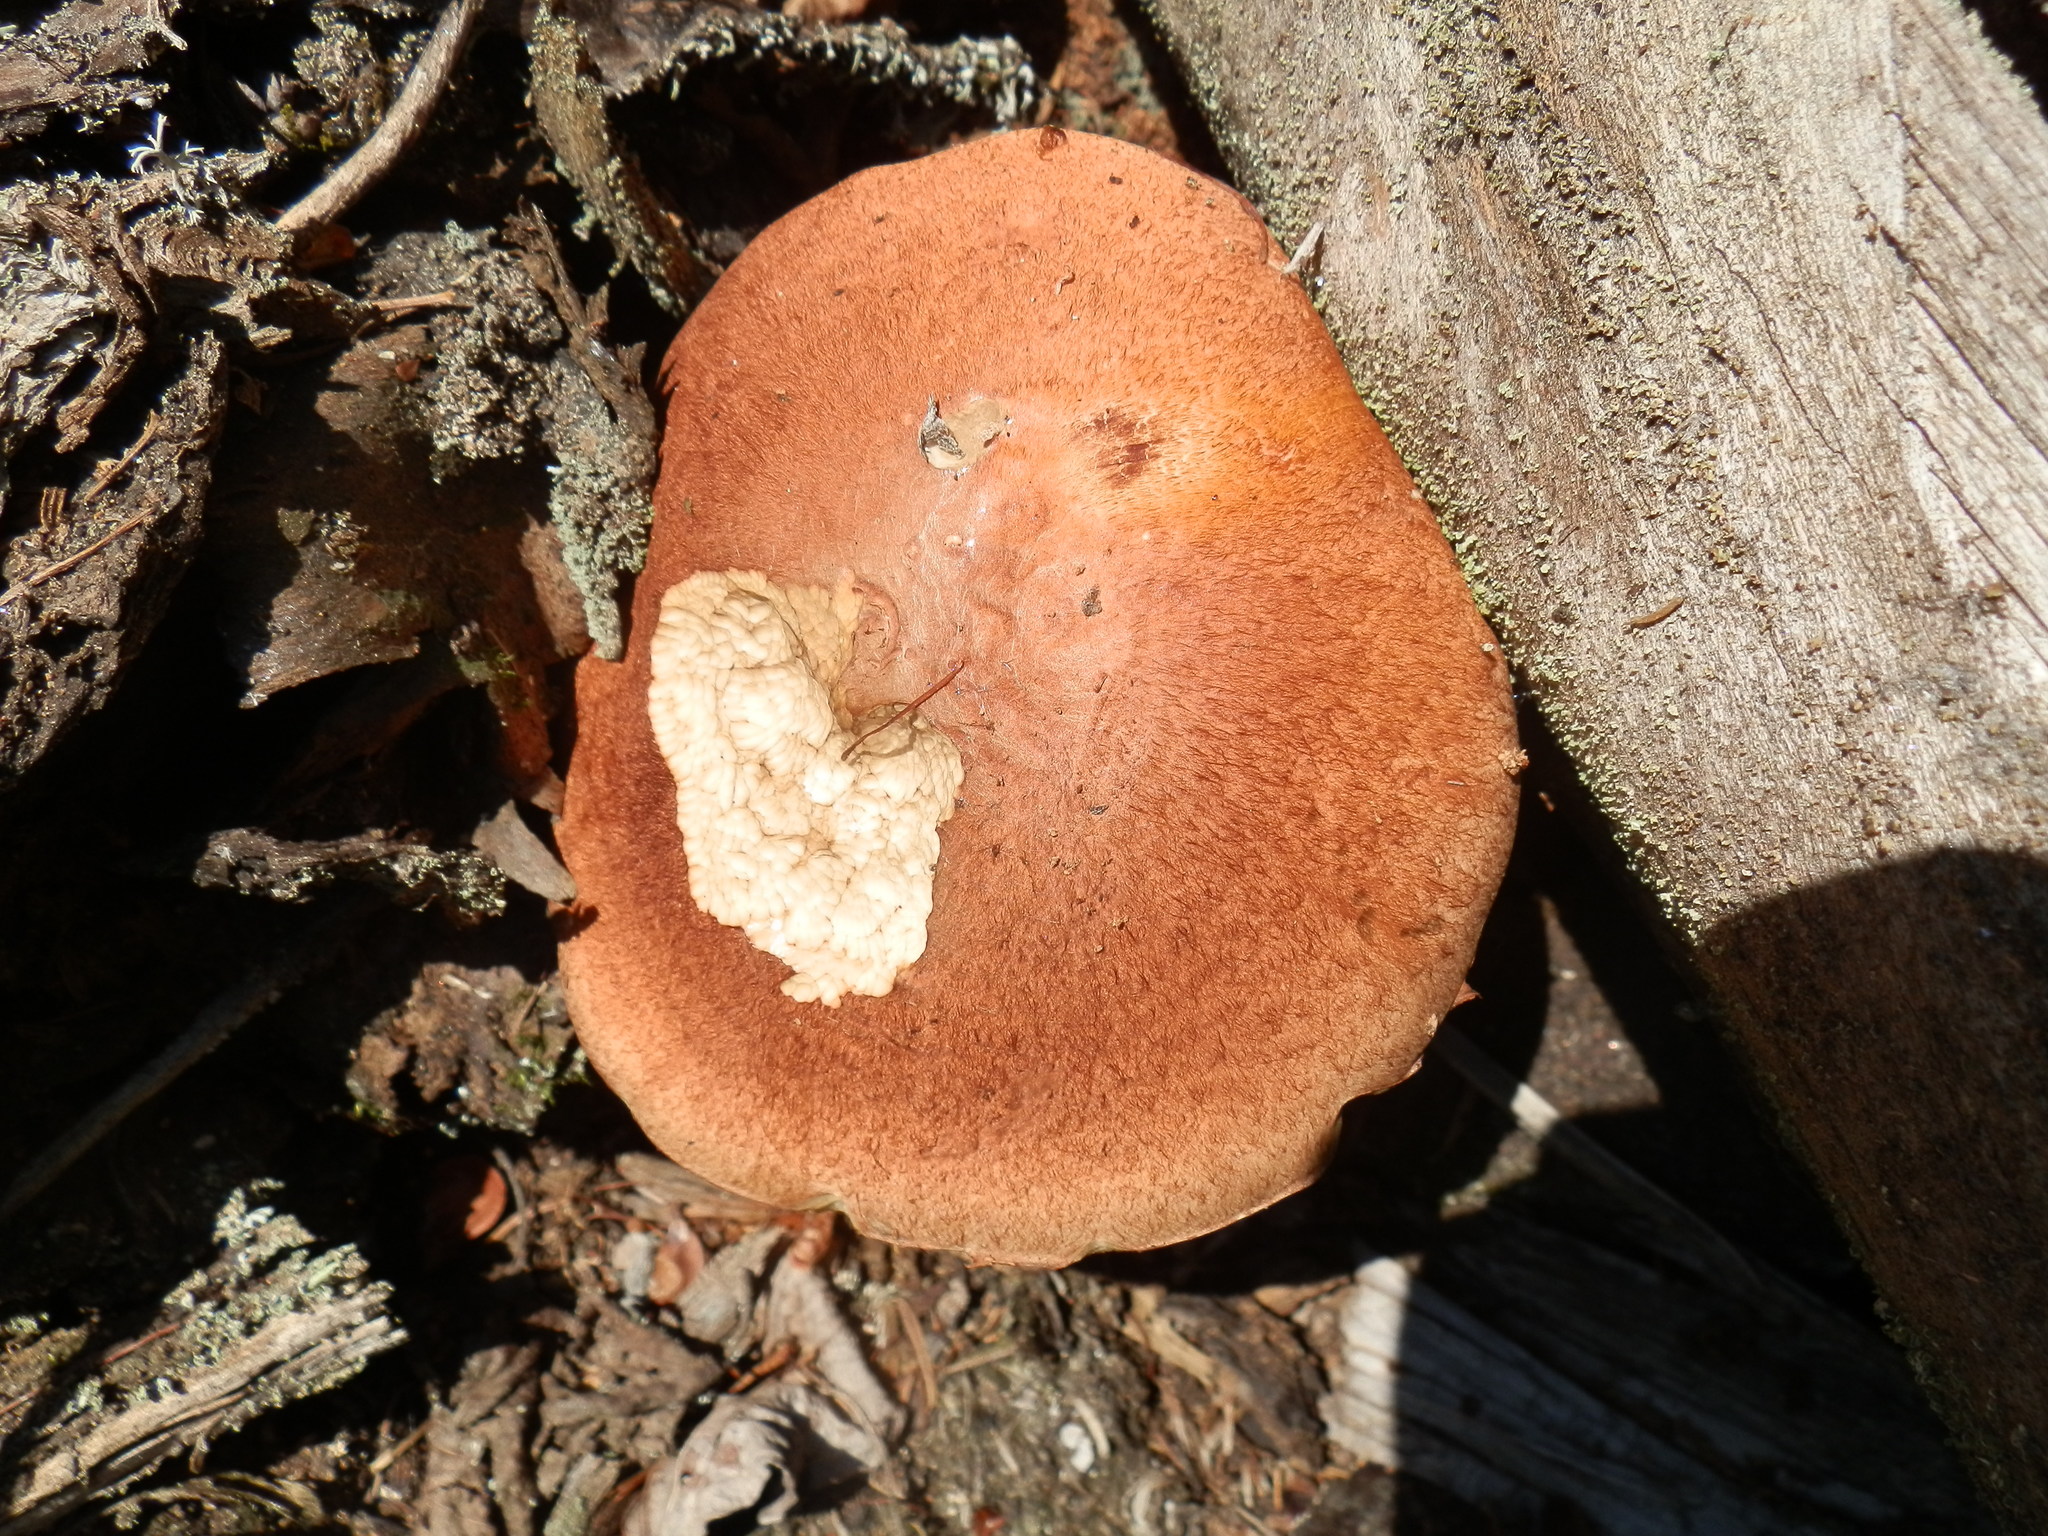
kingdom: Fungi
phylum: Basidiomycota
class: Agaricomycetes
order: Boletales
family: Boletaceae
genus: Leccinum
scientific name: Leccinum versipelle
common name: Orange birch bolete
